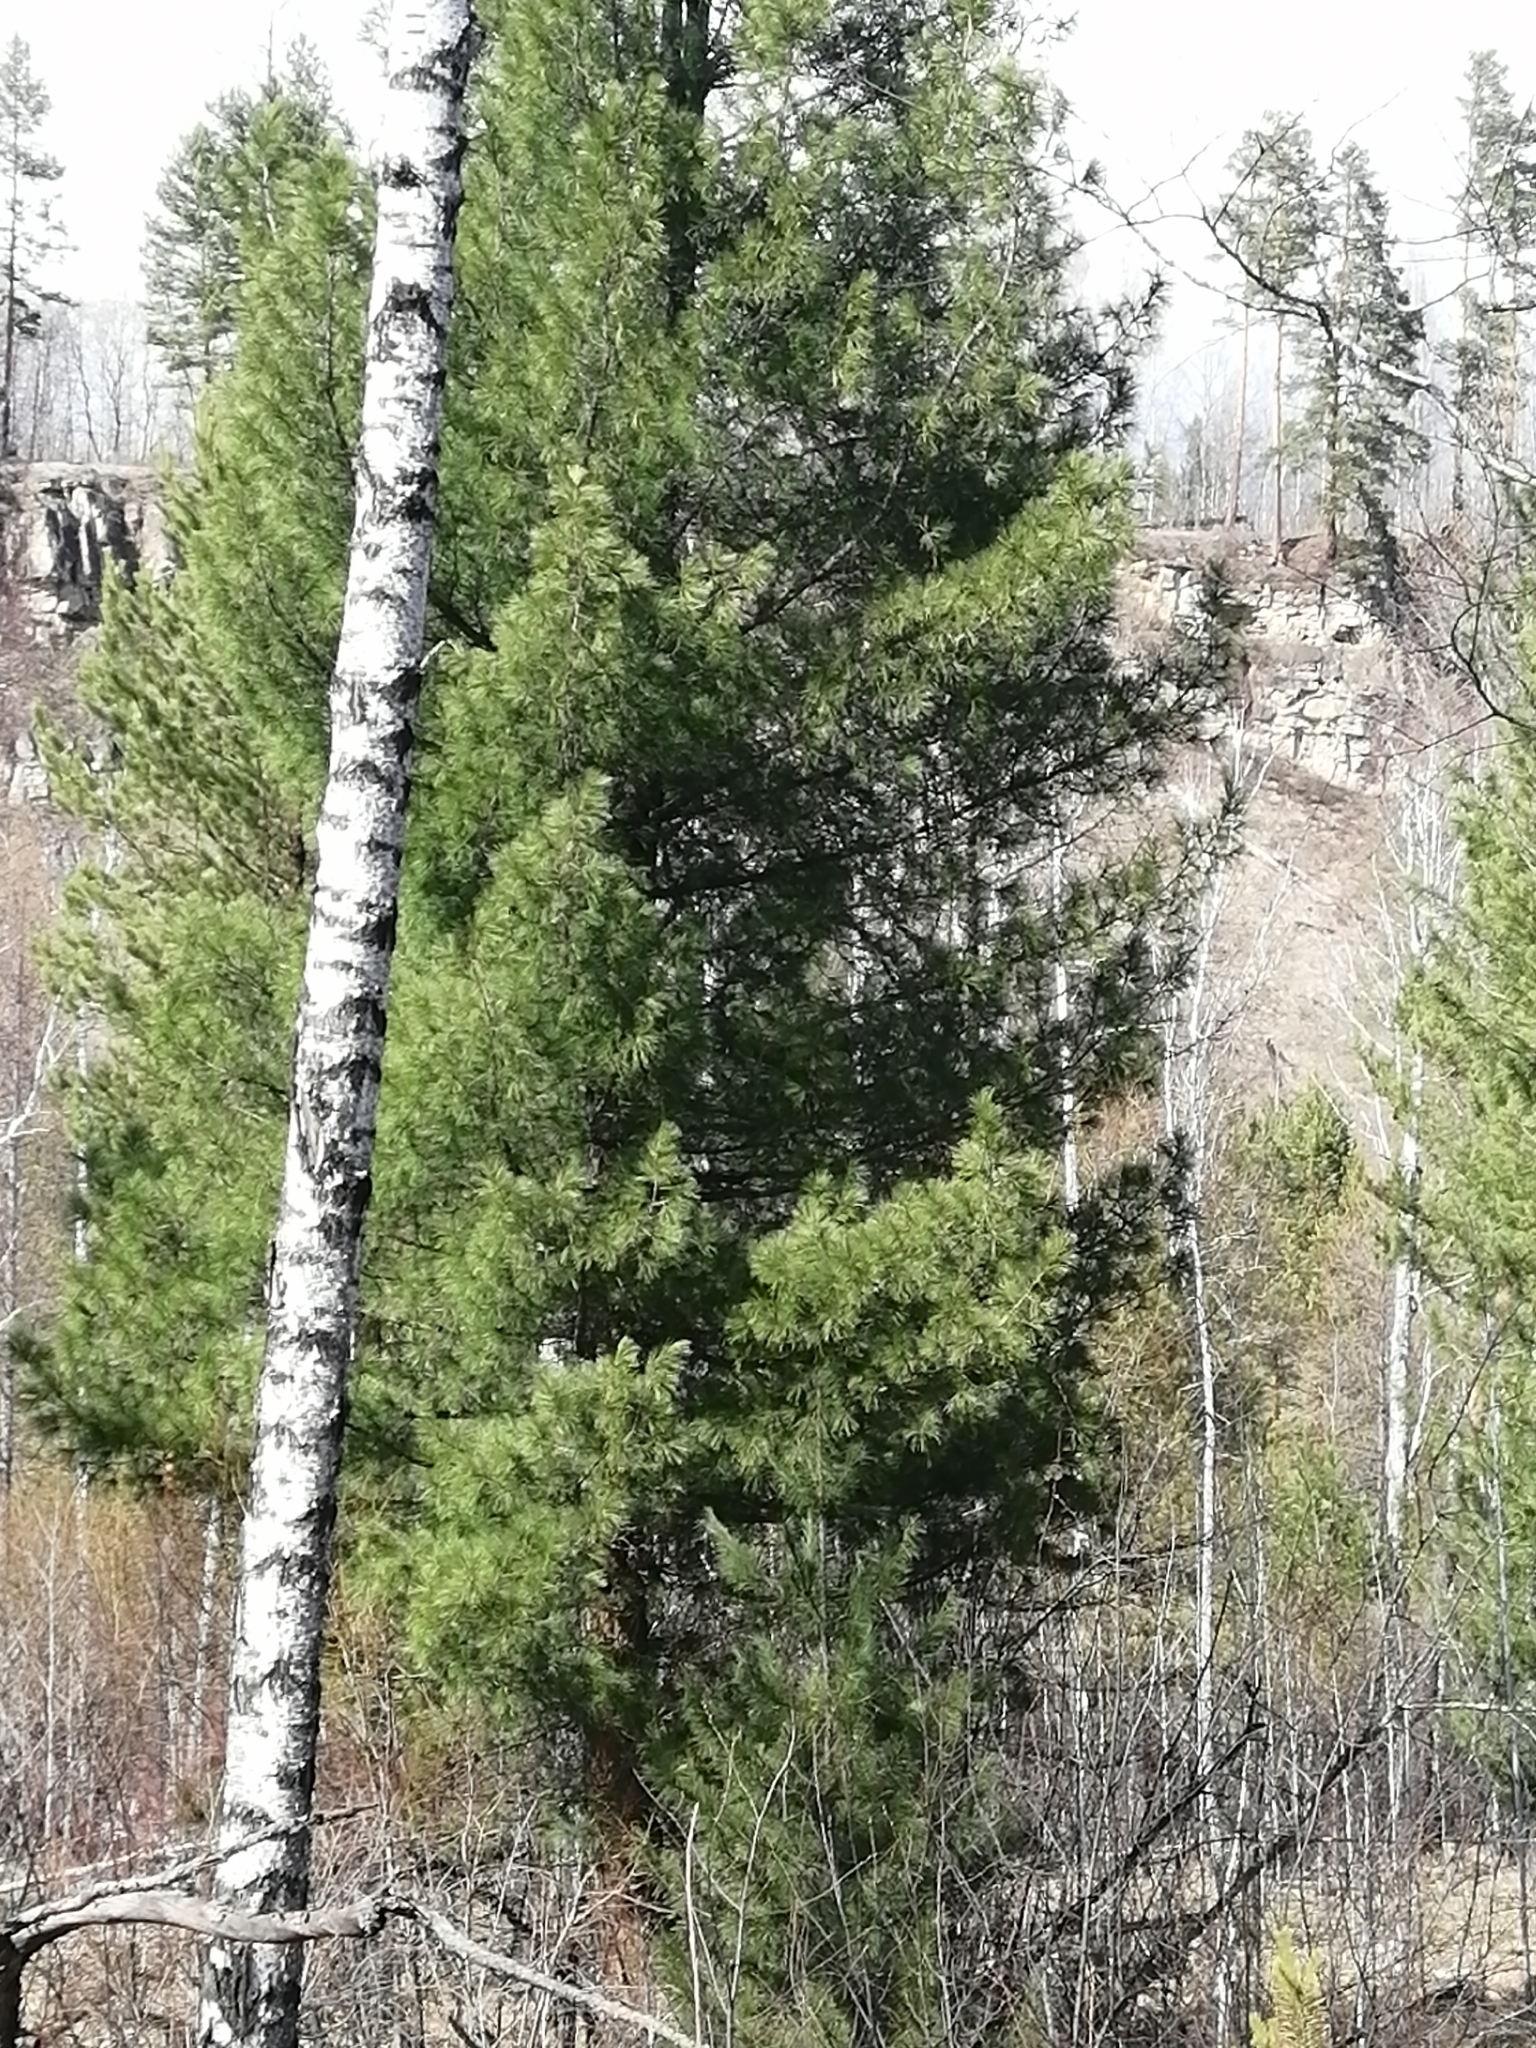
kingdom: Plantae
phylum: Tracheophyta
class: Pinopsida
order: Pinales
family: Pinaceae
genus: Pinus
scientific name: Pinus sibirica
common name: Siberian pine
